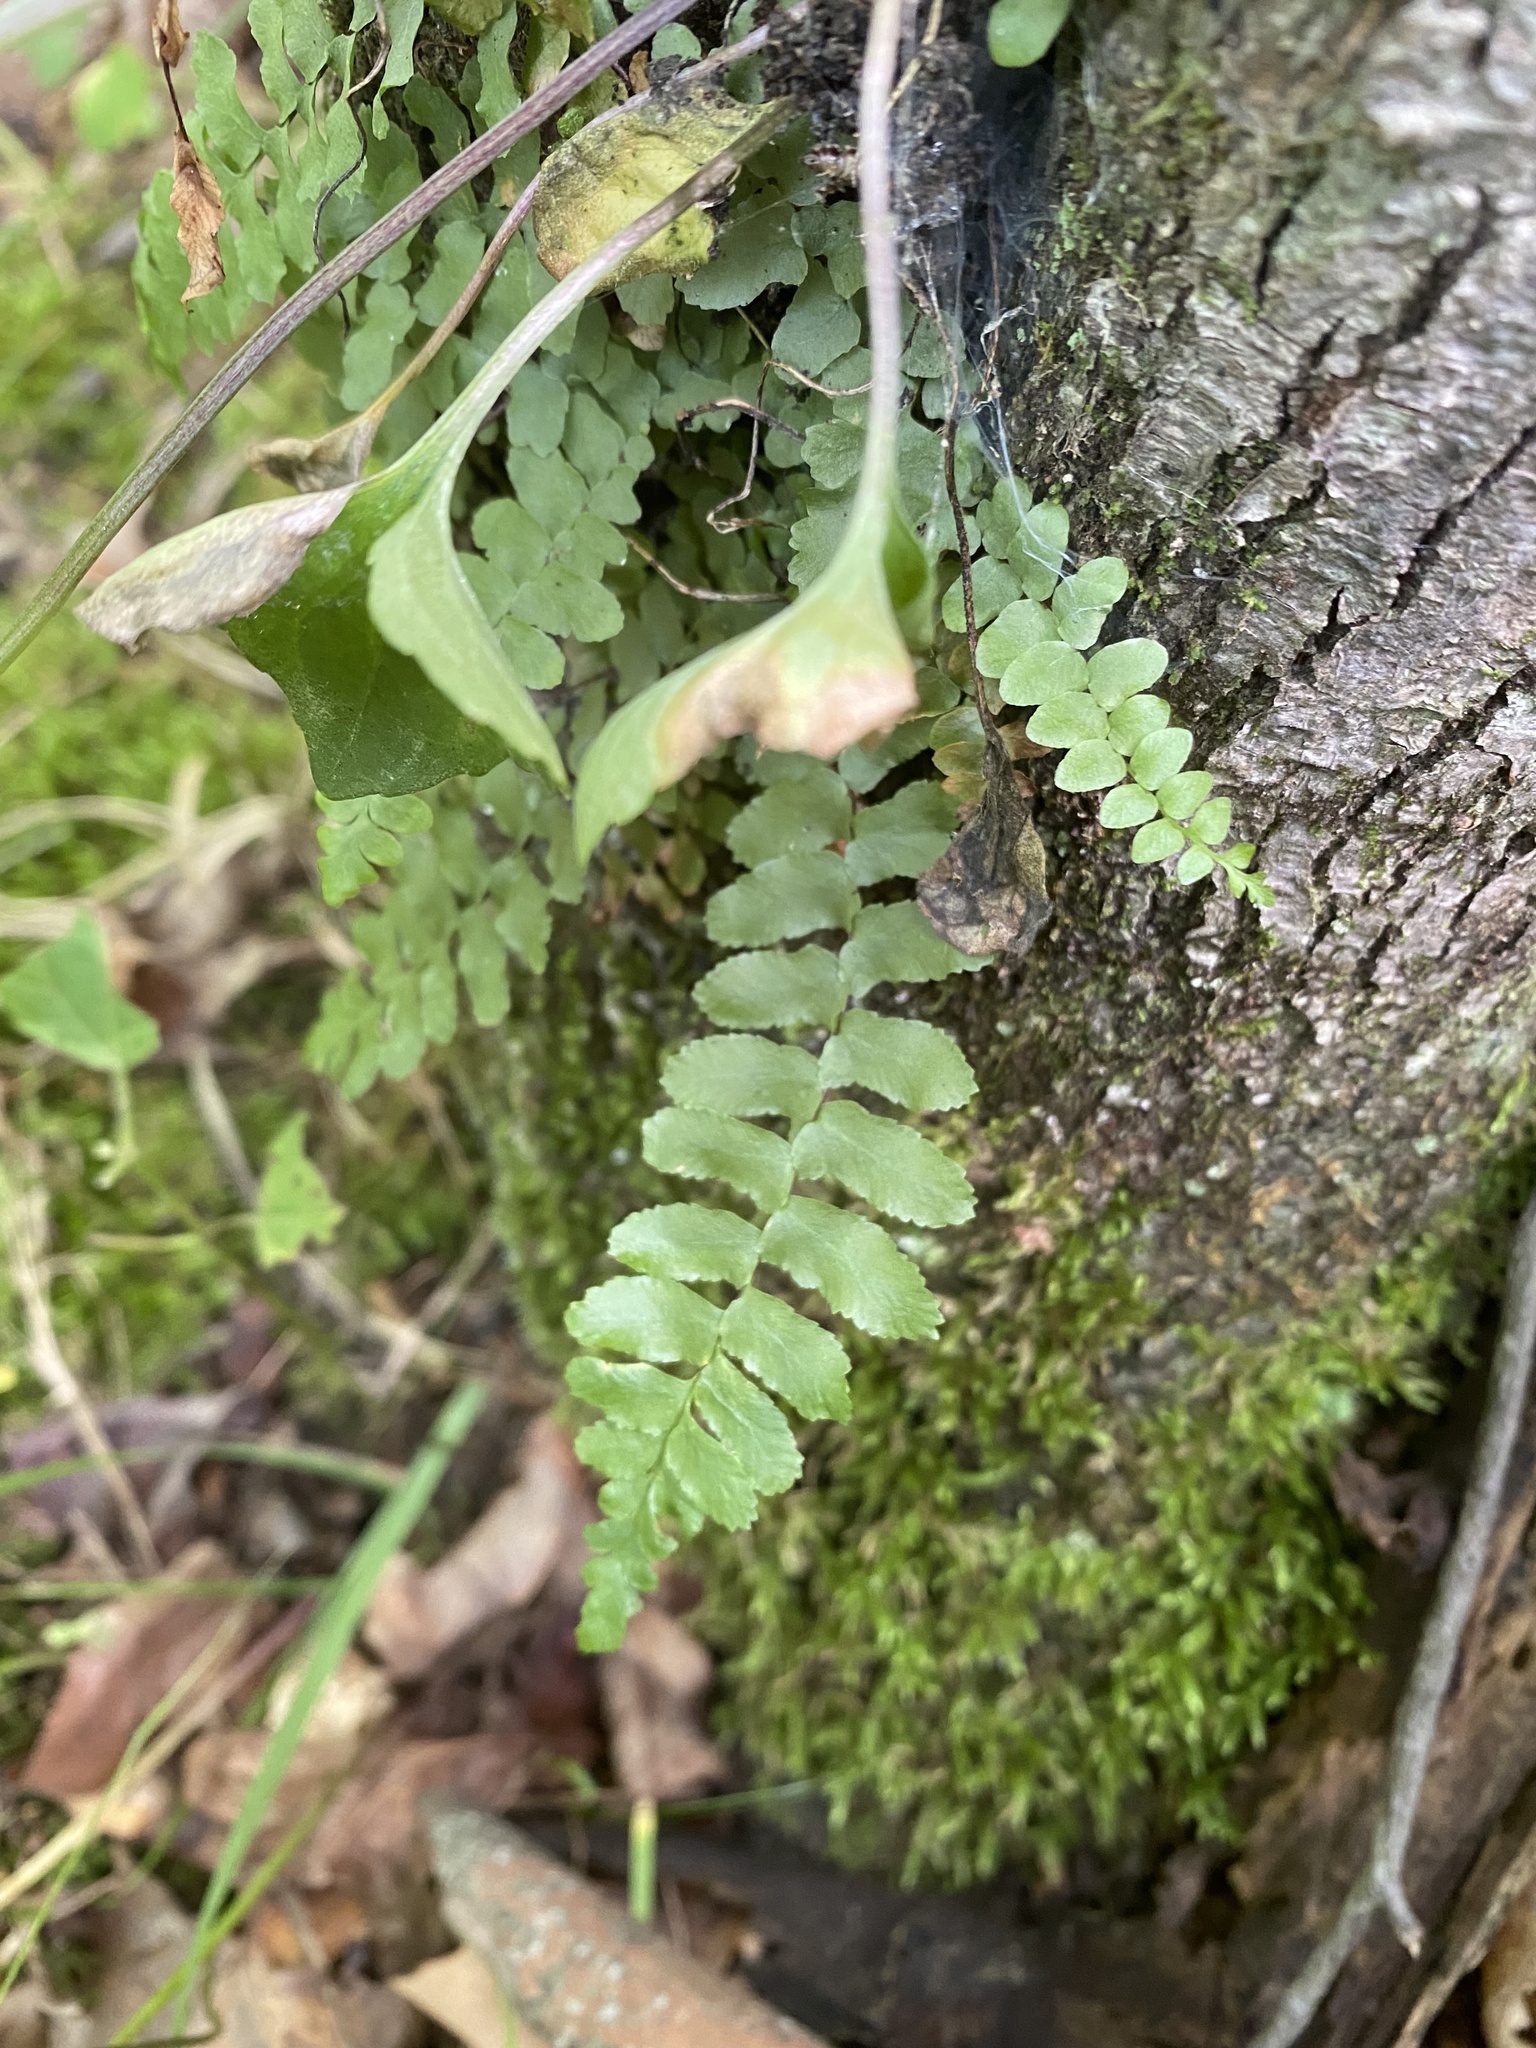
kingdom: Plantae
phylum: Tracheophyta
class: Polypodiopsida
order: Polypodiales
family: Aspleniaceae
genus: Asplenium
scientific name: Asplenium platyneuron
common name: Ebony spleenwort
